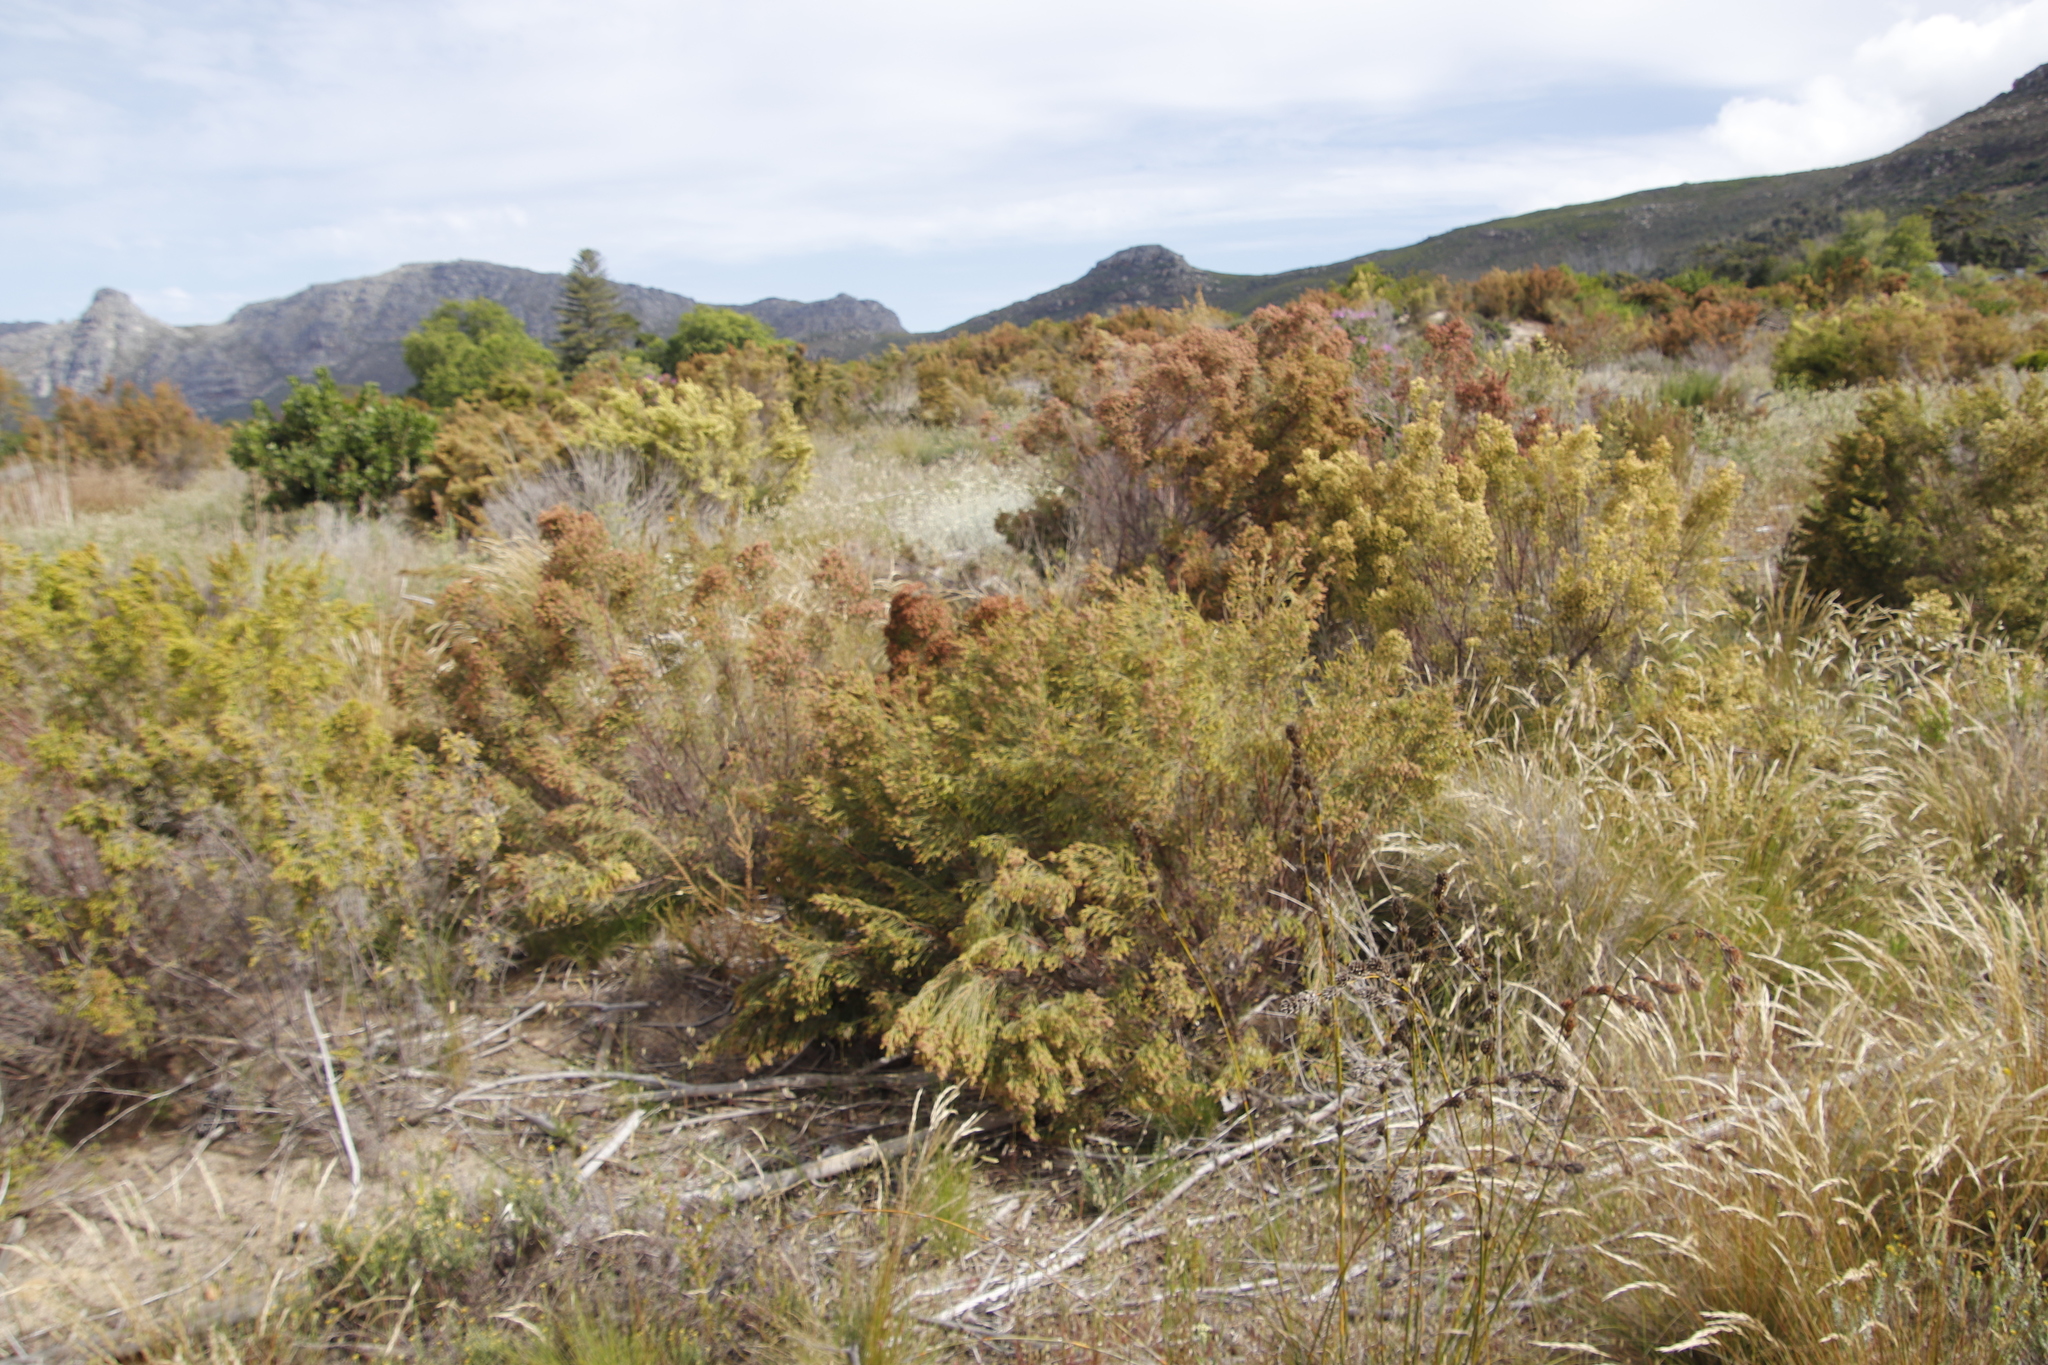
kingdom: Plantae
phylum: Tracheophyta
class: Magnoliopsida
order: Malvales
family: Thymelaeaceae
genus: Passerina
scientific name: Passerina corymbosa
